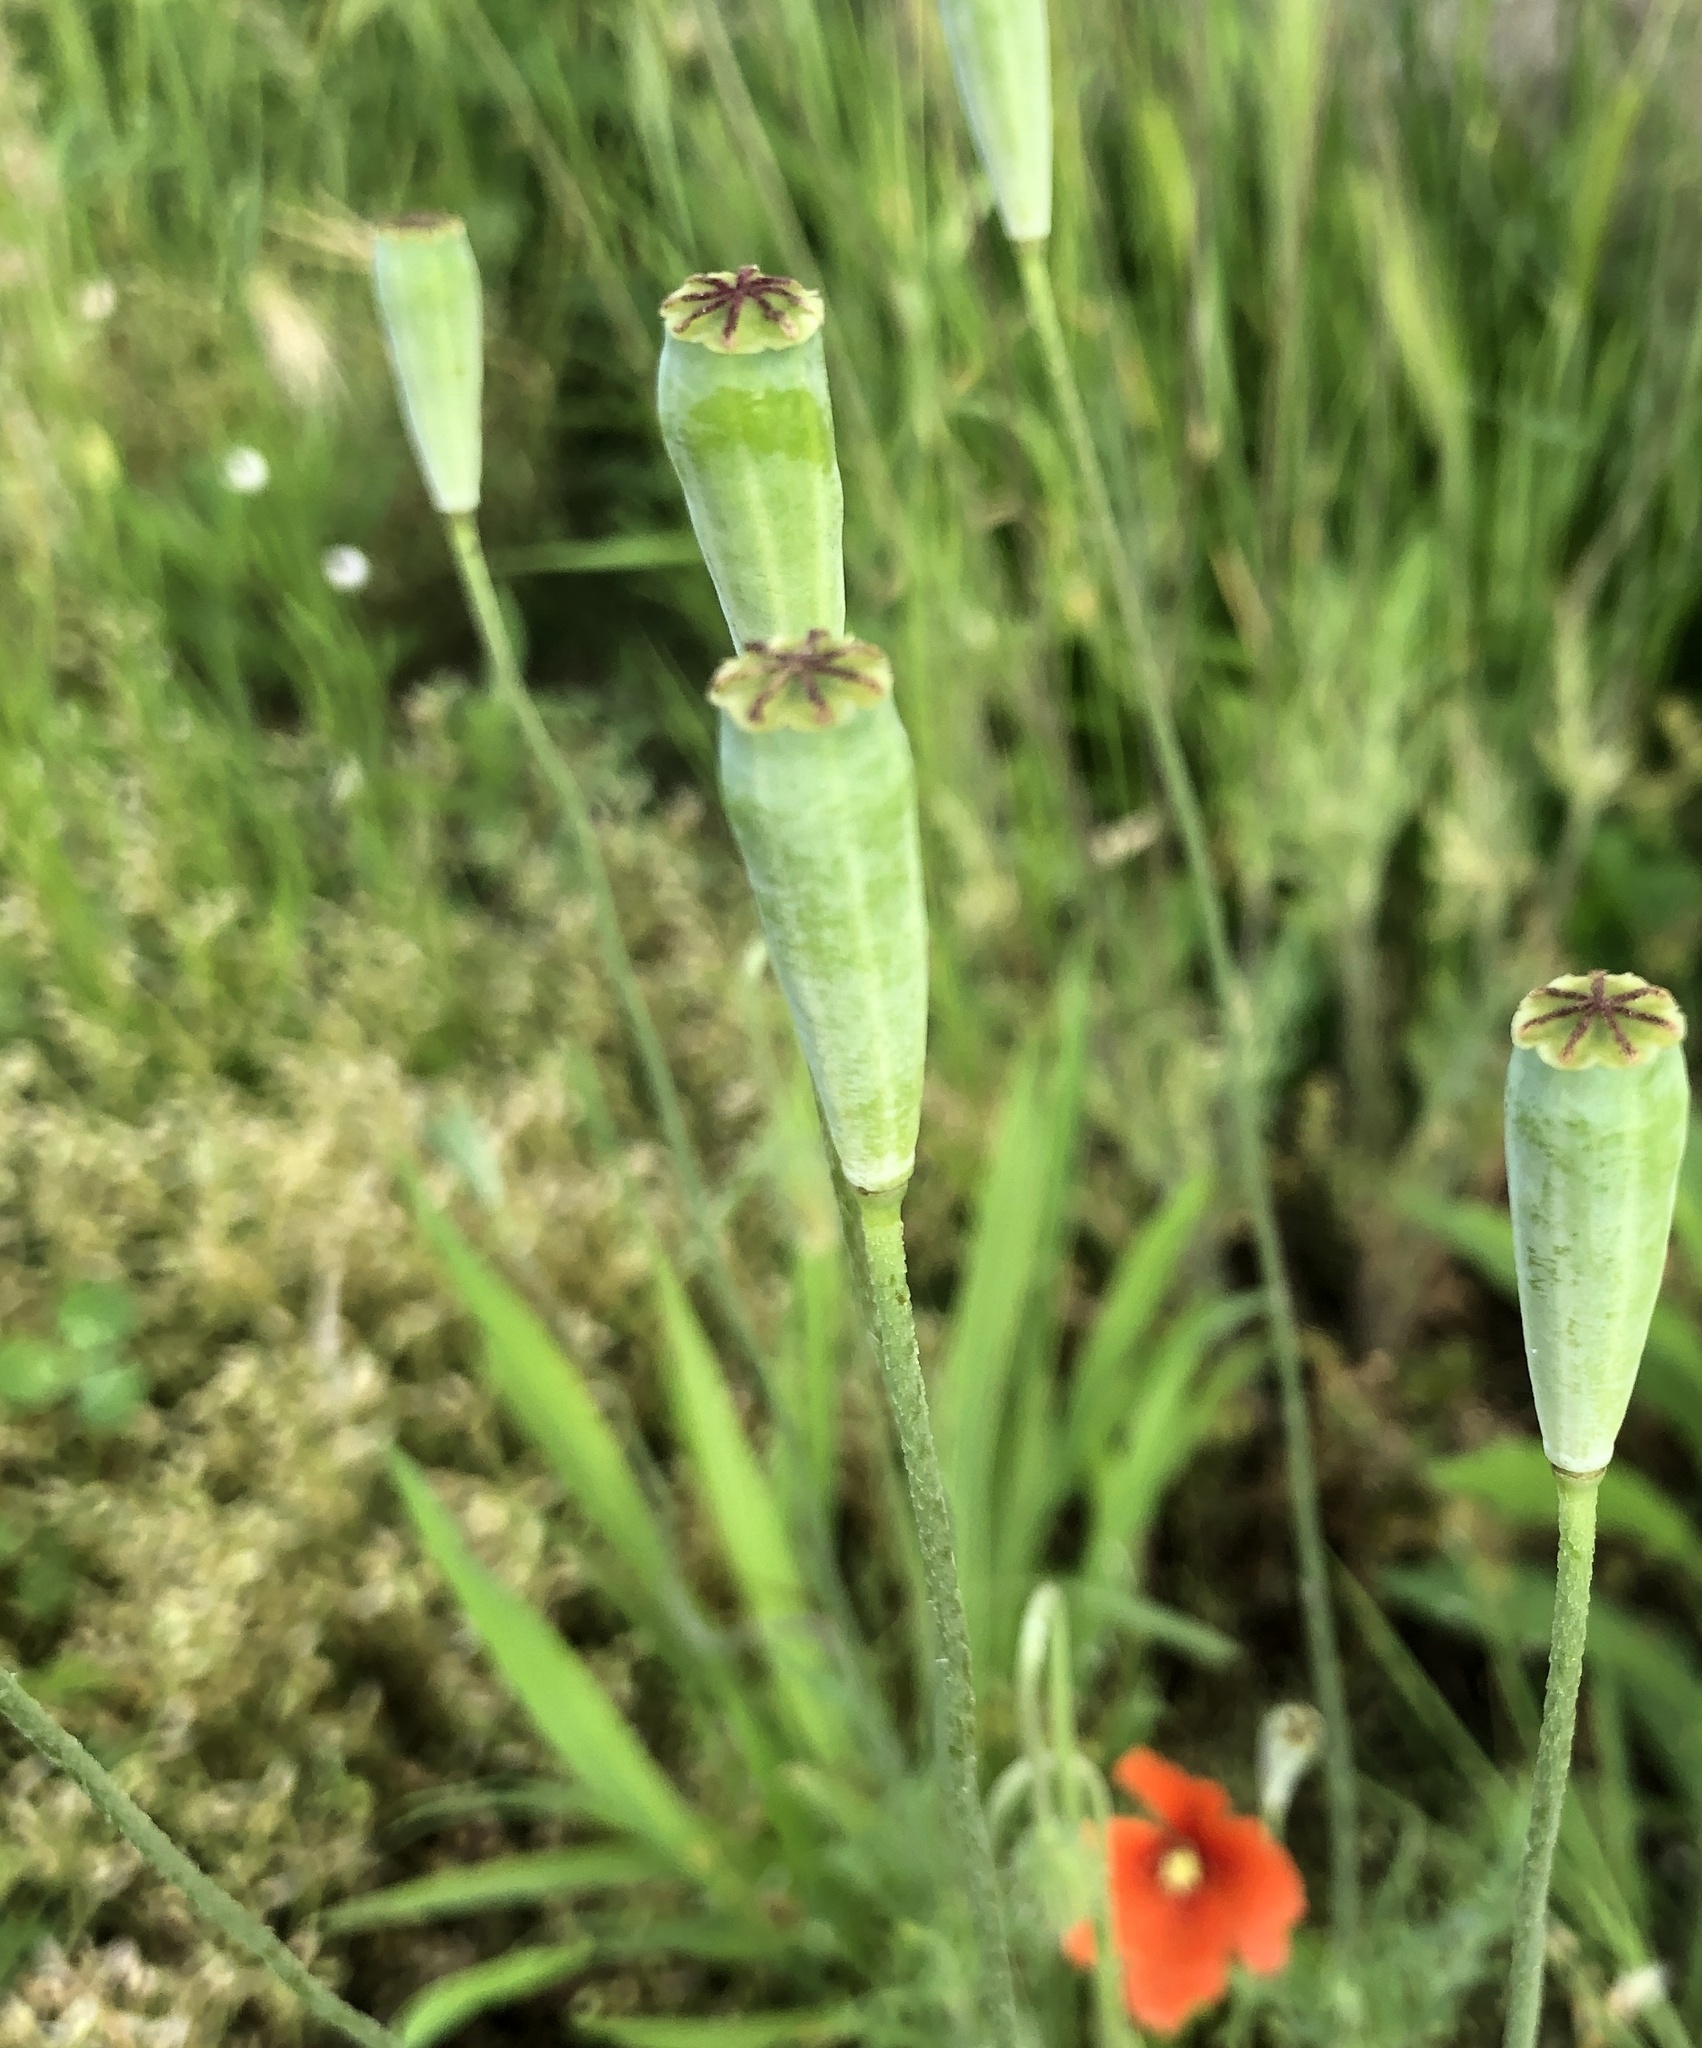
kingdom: Plantae
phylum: Tracheophyta
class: Magnoliopsida
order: Ranunculales
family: Papaveraceae
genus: Papaver
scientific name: Papaver dubium
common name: Long-headed poppy
